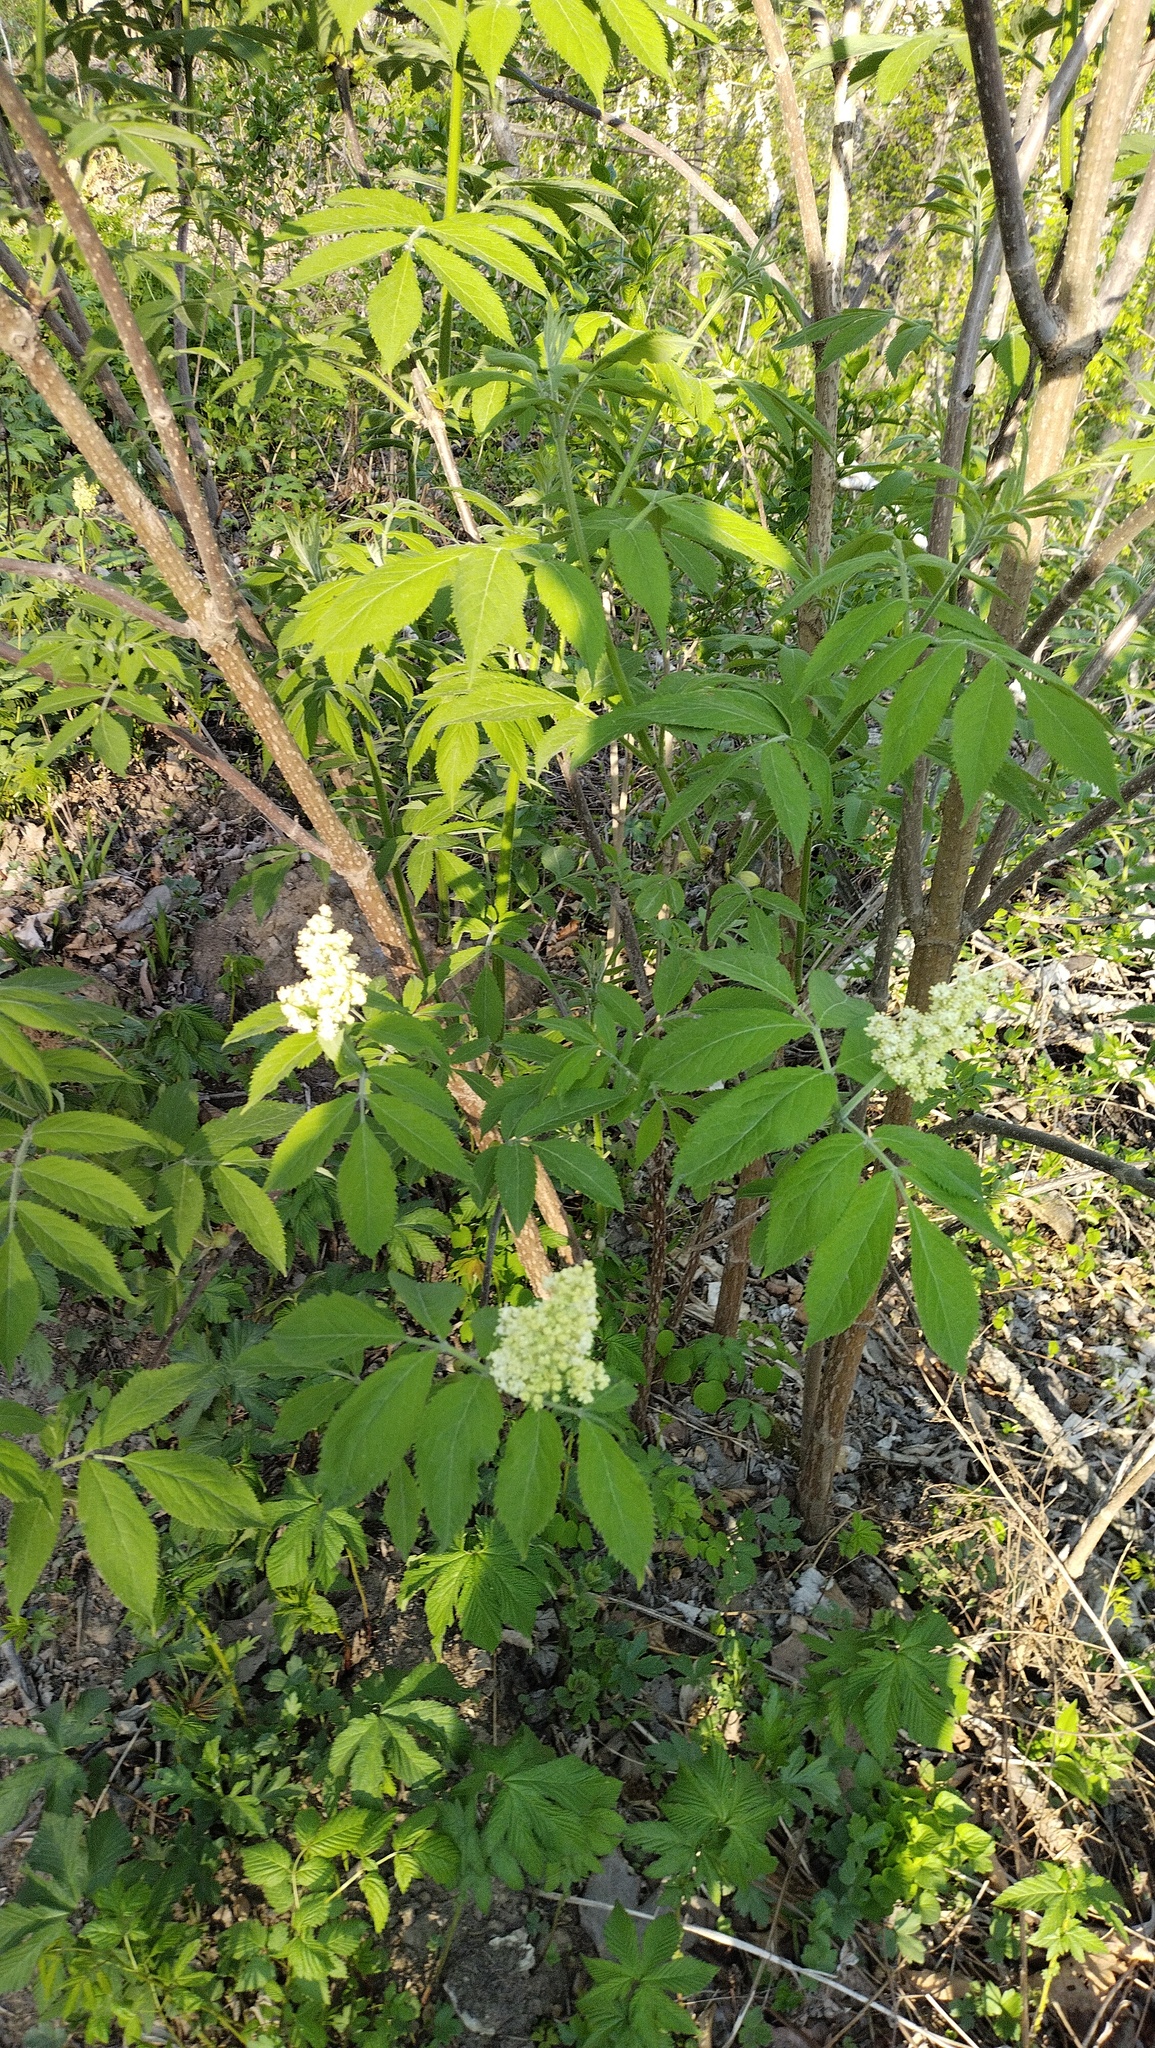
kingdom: Plantae
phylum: Tracheophyta
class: Magnoliopsida
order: Dipsacales
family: Viburnaceae
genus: Sambucus
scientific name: Sambucus sibirica
